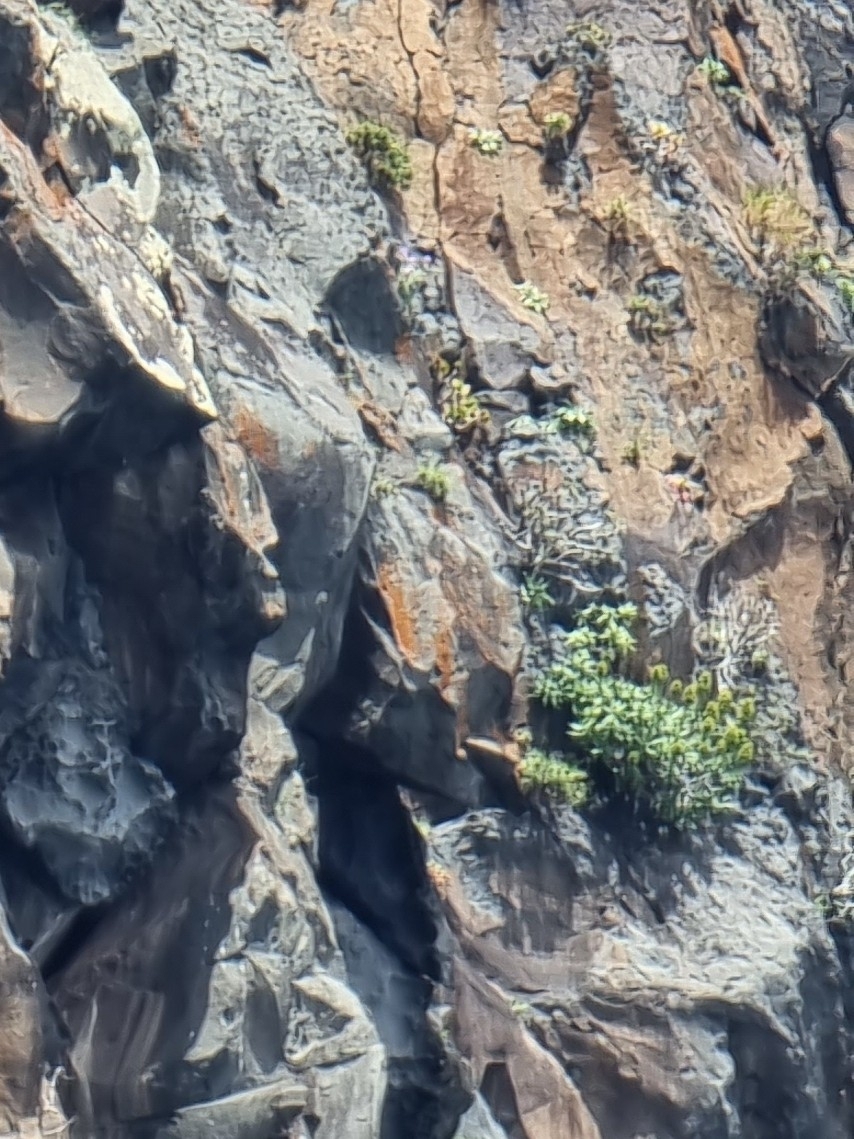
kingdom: Plantae
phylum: Tracheophyta
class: Magnoliopsida
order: Boraginales
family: Boraginaceae
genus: Echium
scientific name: Echium nervosum
